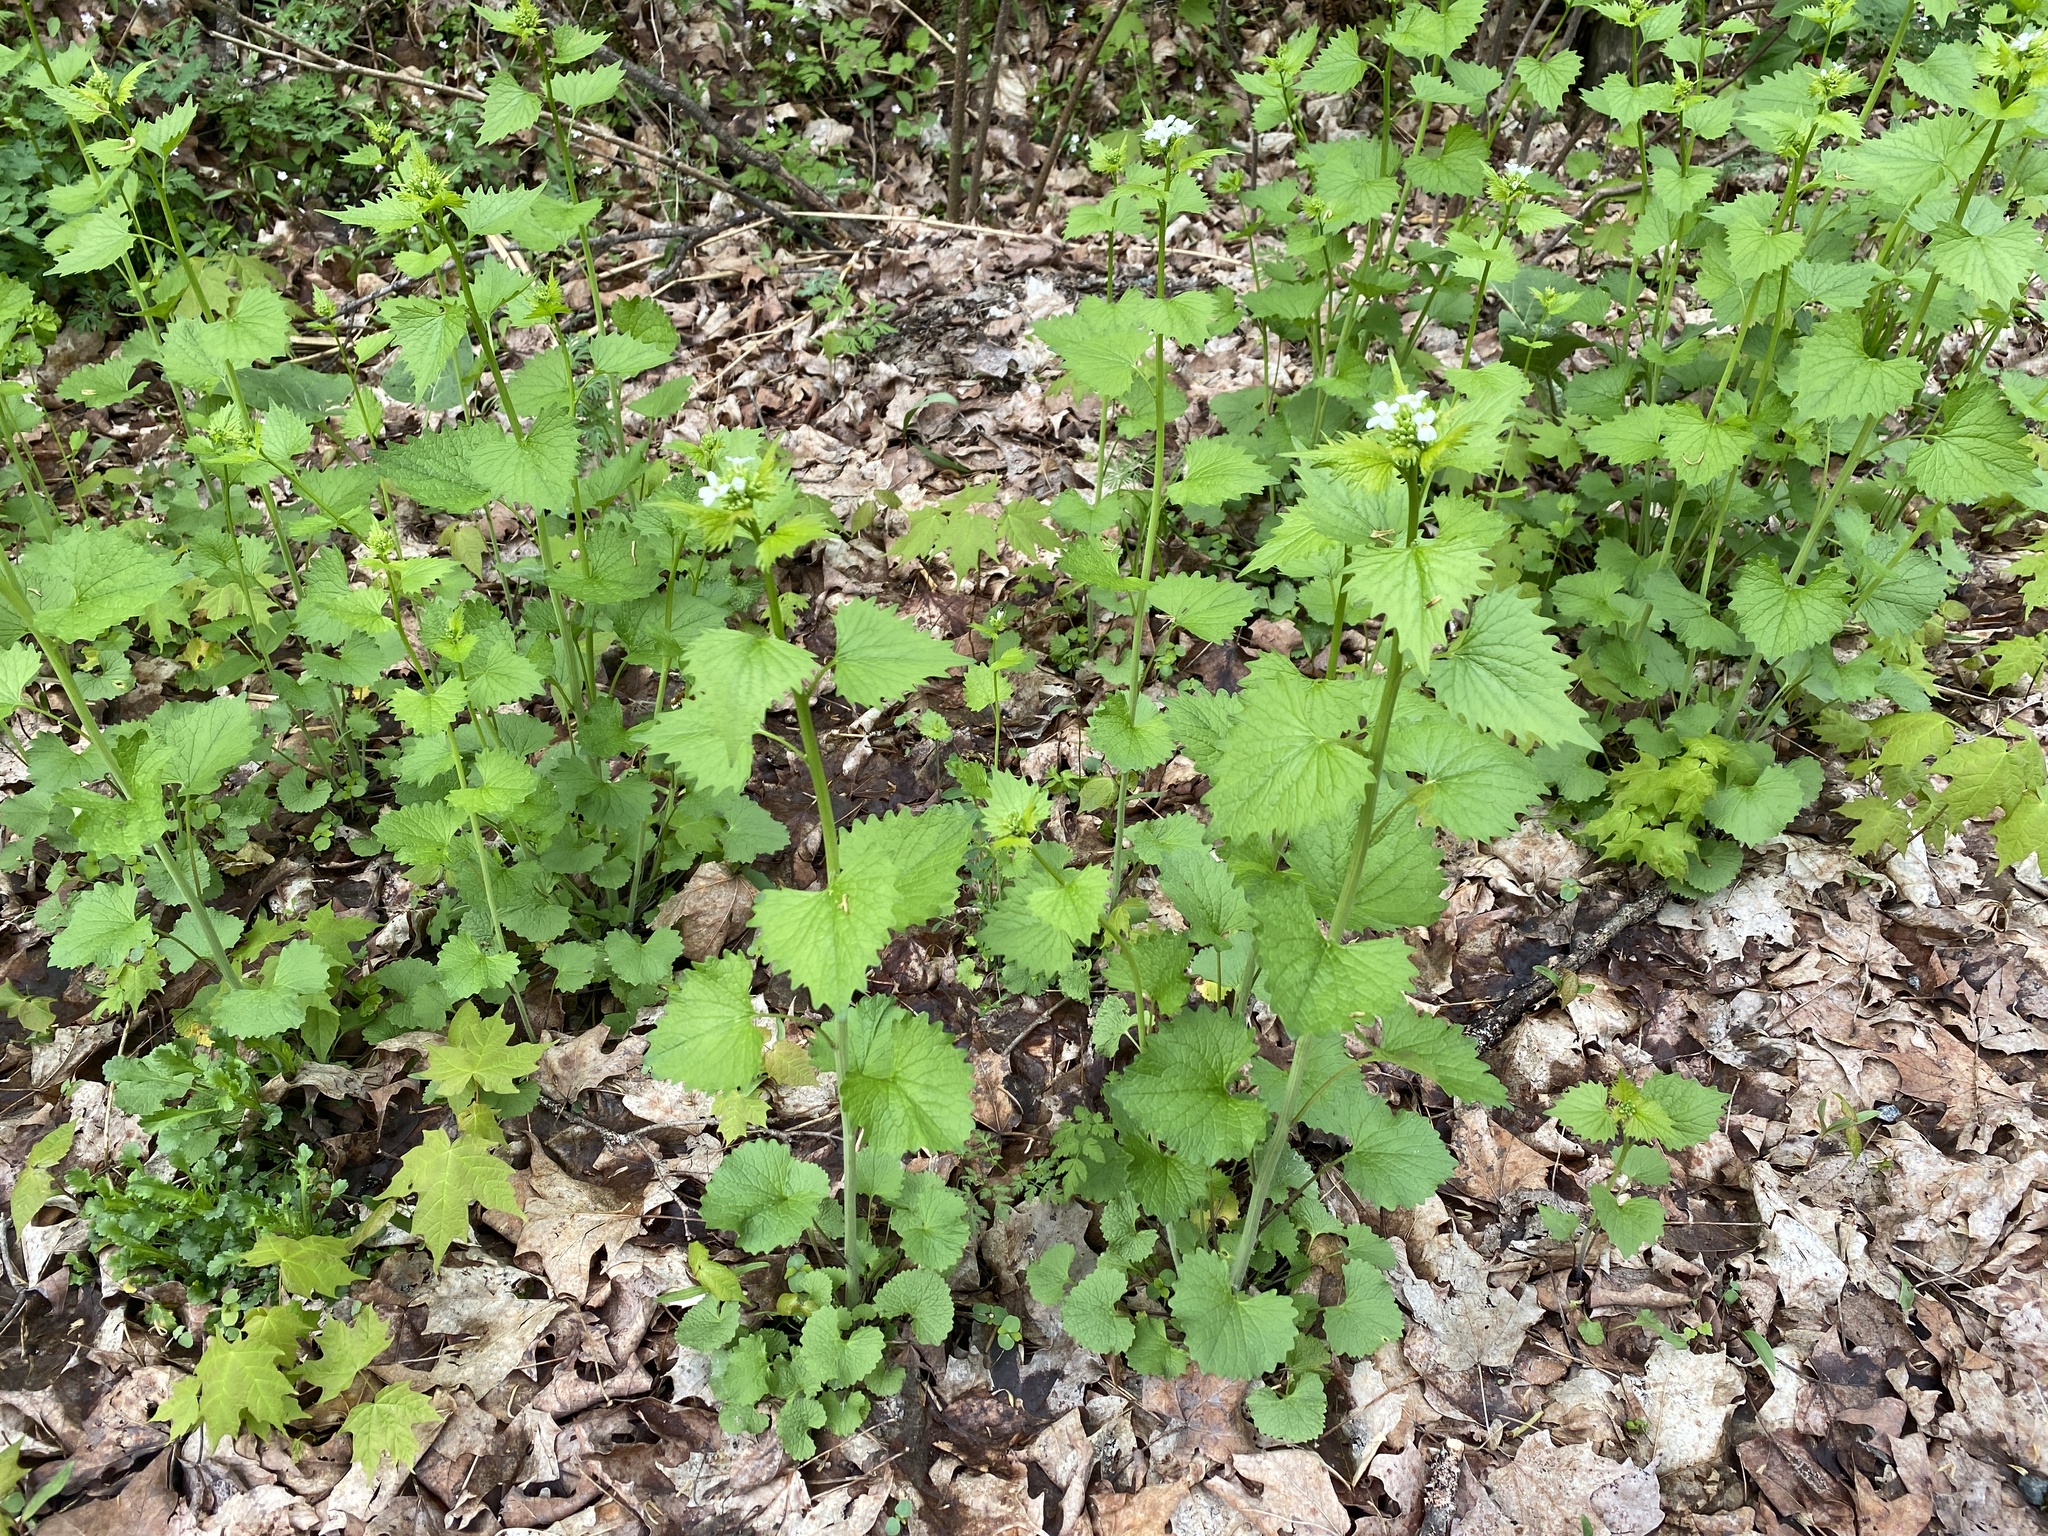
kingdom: Plantae
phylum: Tracheophyta
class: Magnoliopsida
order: Brassicales
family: Brassicaceae
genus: Alliaria
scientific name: Alliaria petiolata
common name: Garlic mustard
